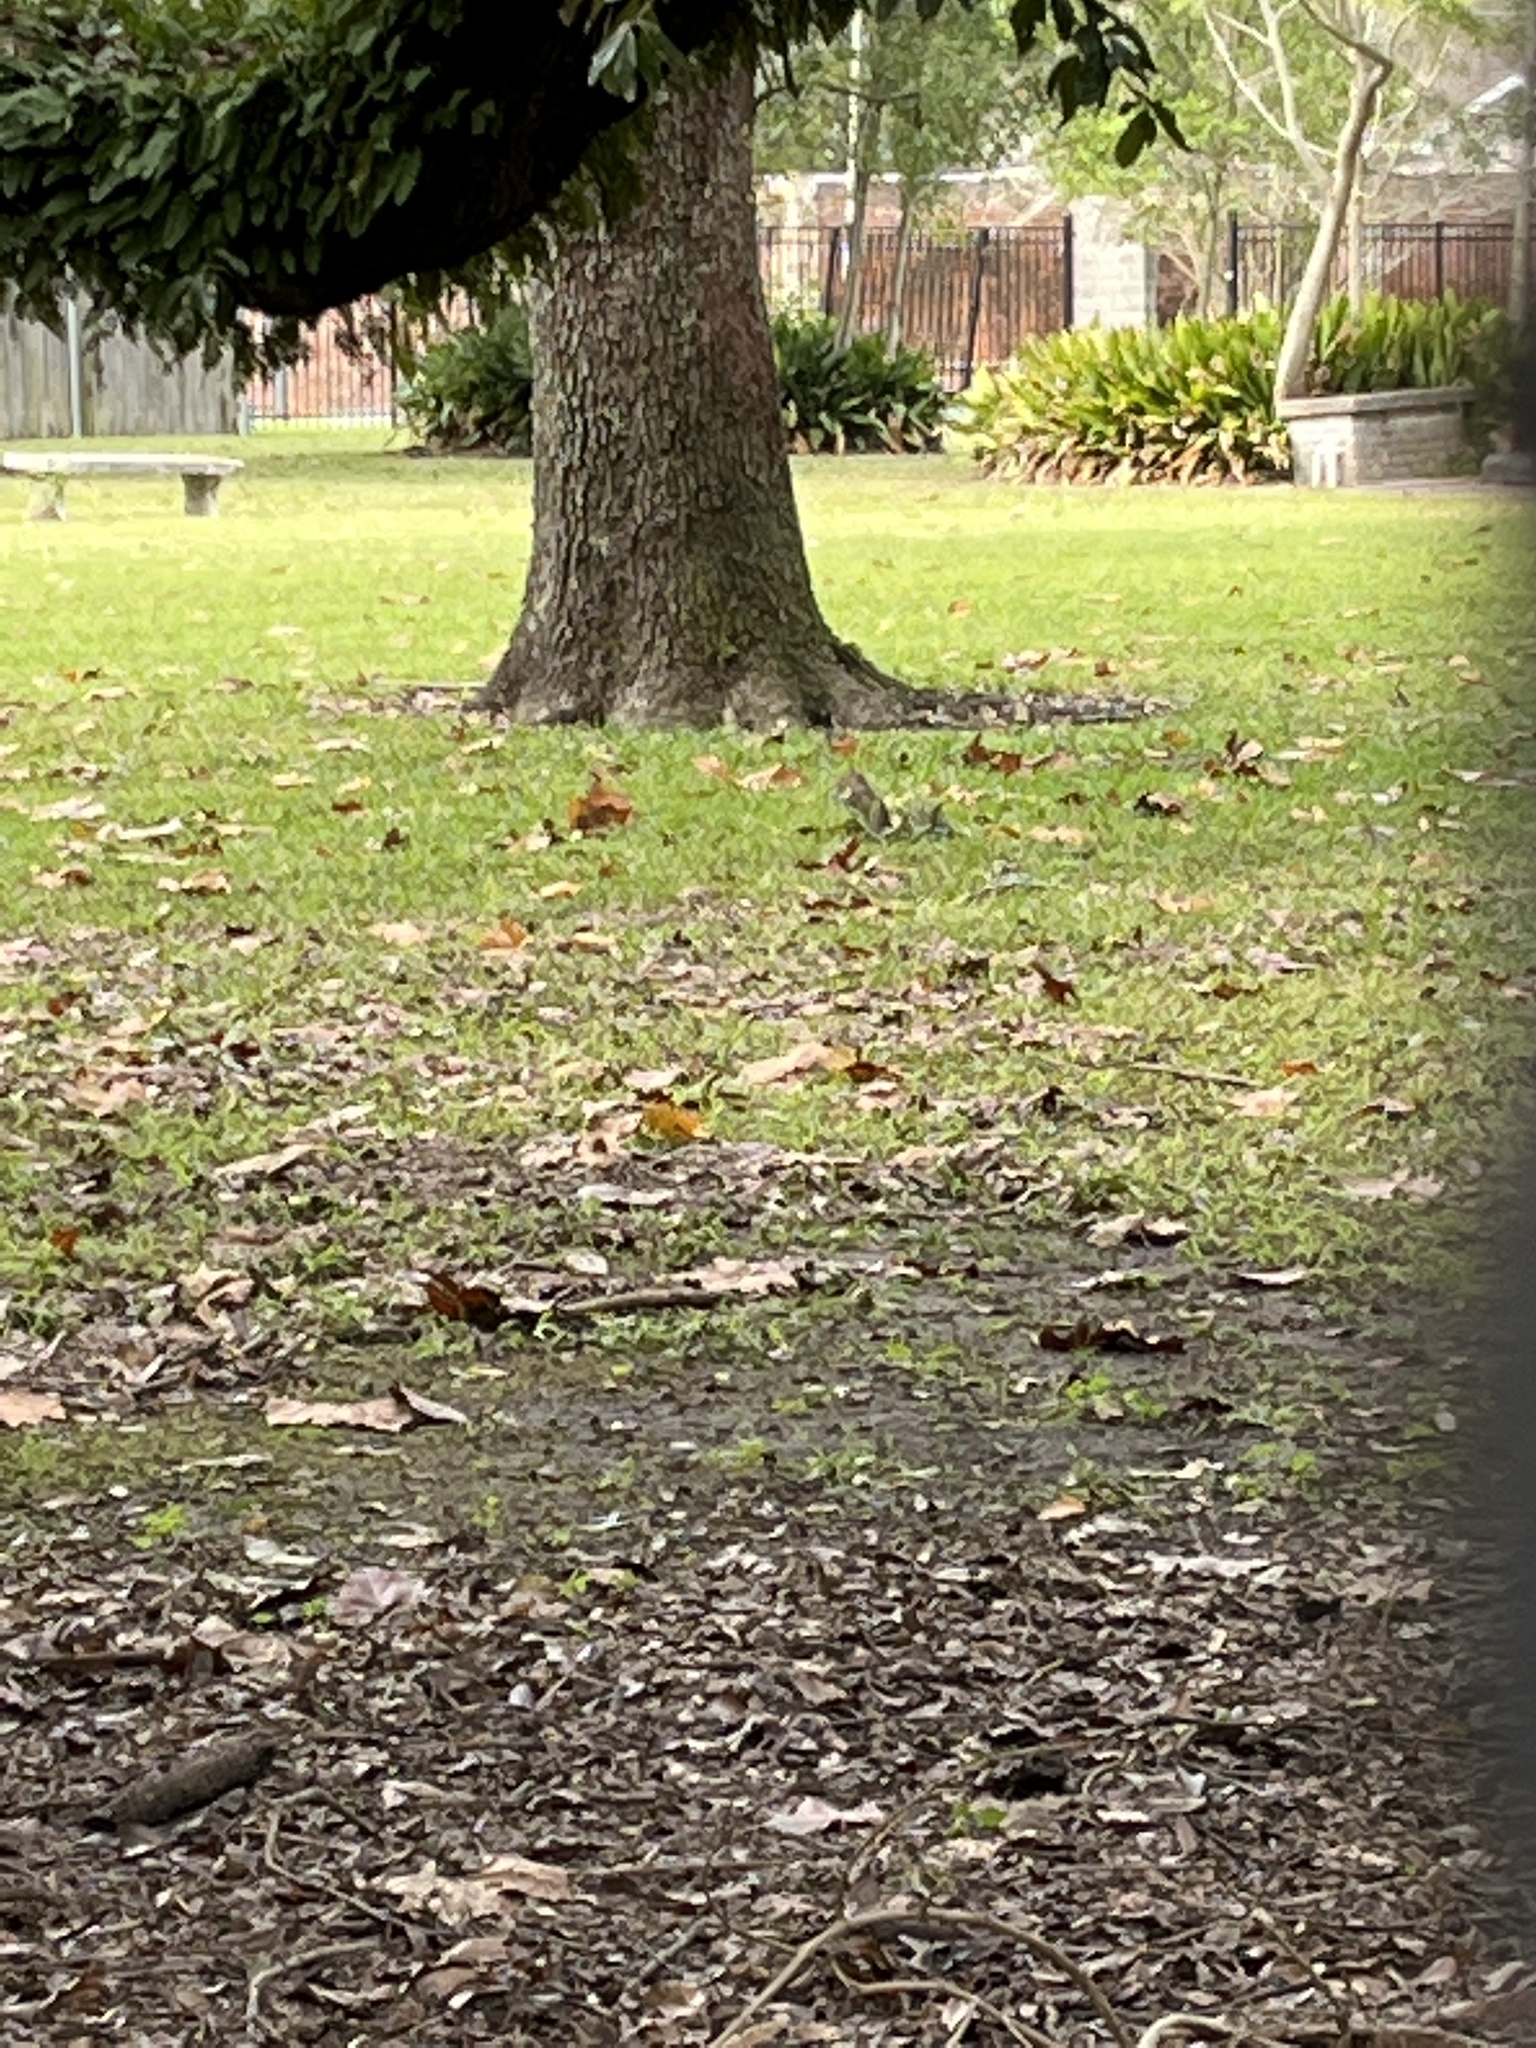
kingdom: Animalia
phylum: Chordata
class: Mammalia
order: Rodentia
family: Sciuridae
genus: Sciurus
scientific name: Sciurus carolinensis
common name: Eastern gray squirrel
